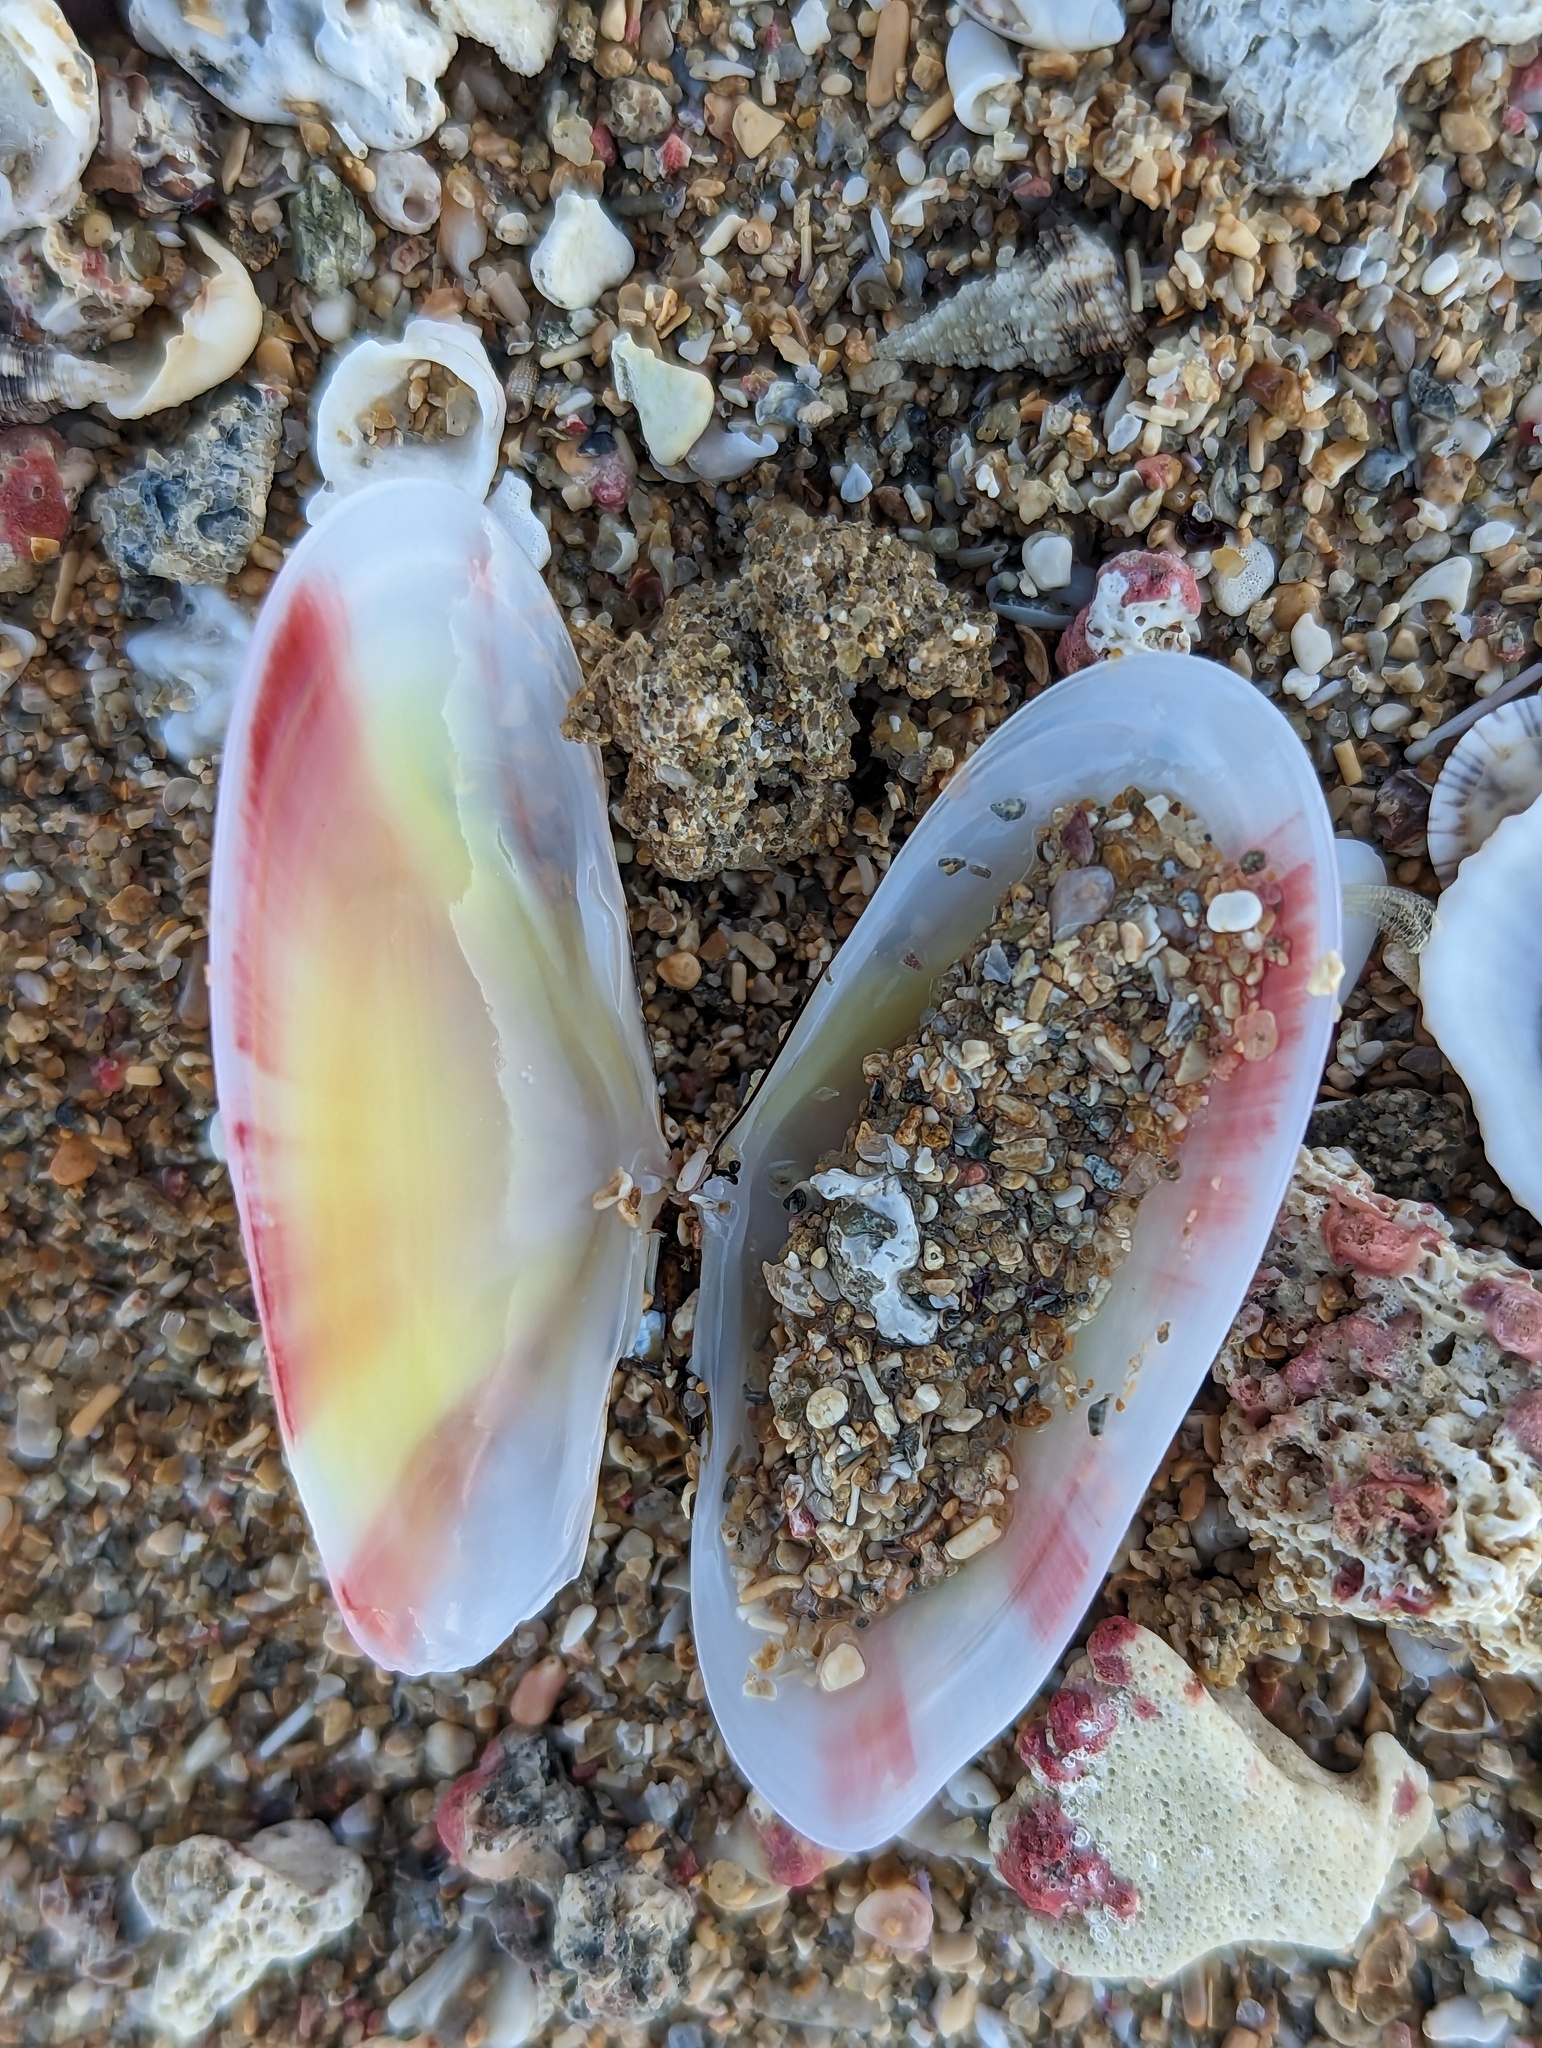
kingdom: Animalia
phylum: Mollusca
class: Bivalvia
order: Cardiida
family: Tellinidae
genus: Tellina
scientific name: Tellina radiata
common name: Sunrise tellin
